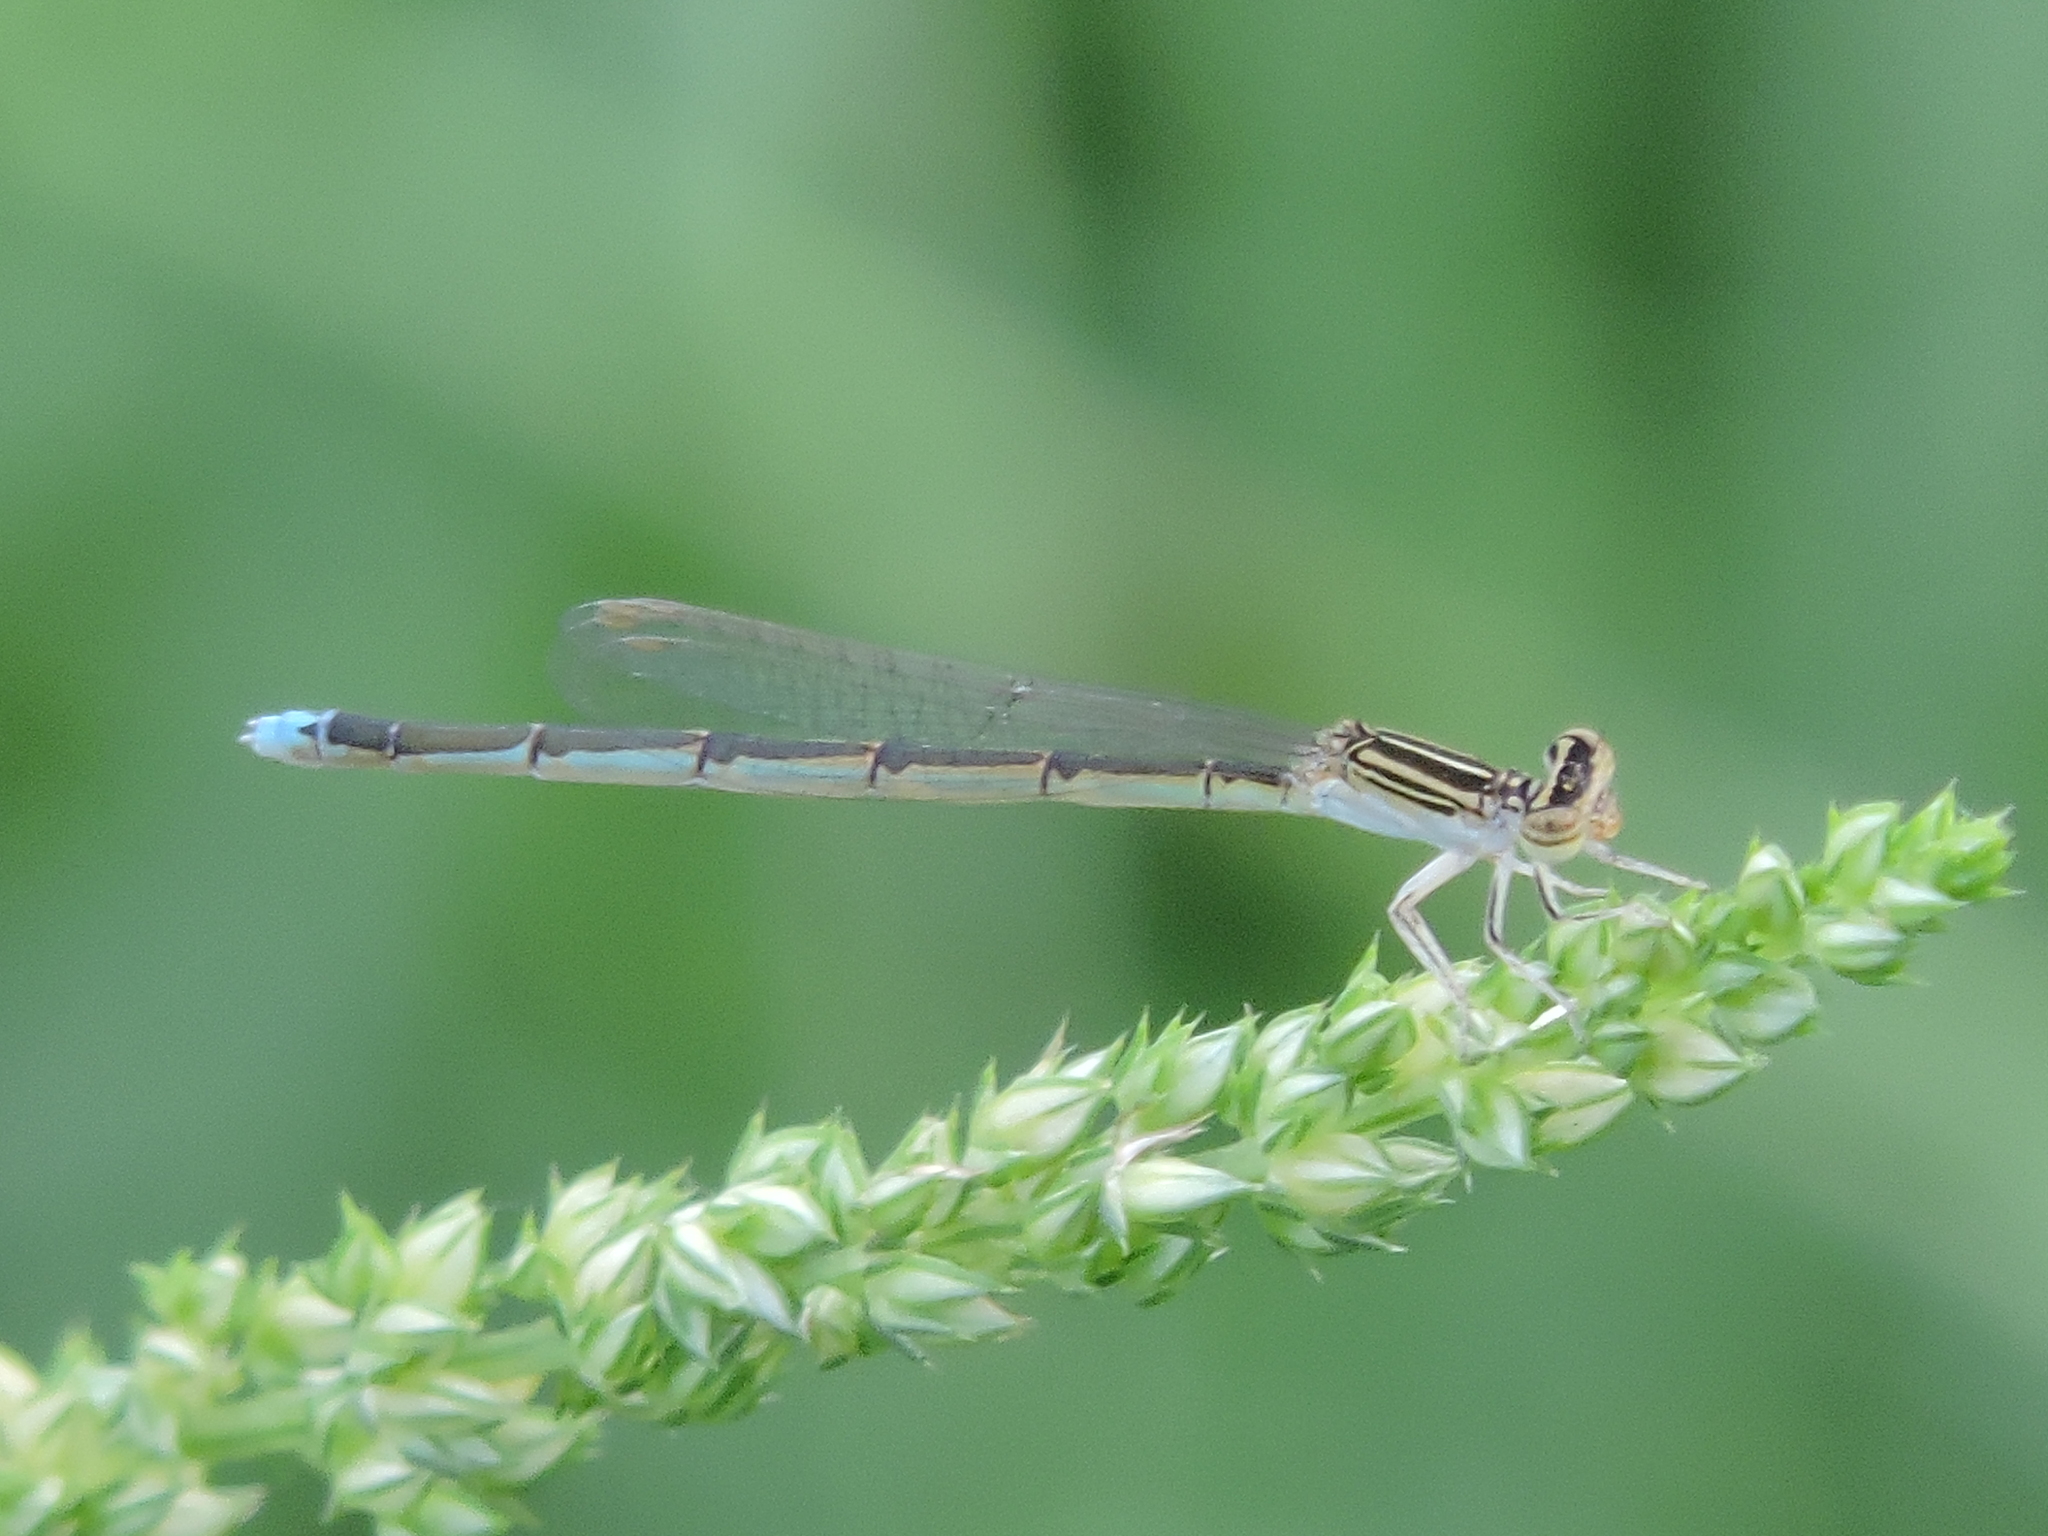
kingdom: Animalia
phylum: Arthropoda
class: Insecta
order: Odonata
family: Coenagrionidae
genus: Enallagma
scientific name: Enallagma basidens
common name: Double-striped bluet
